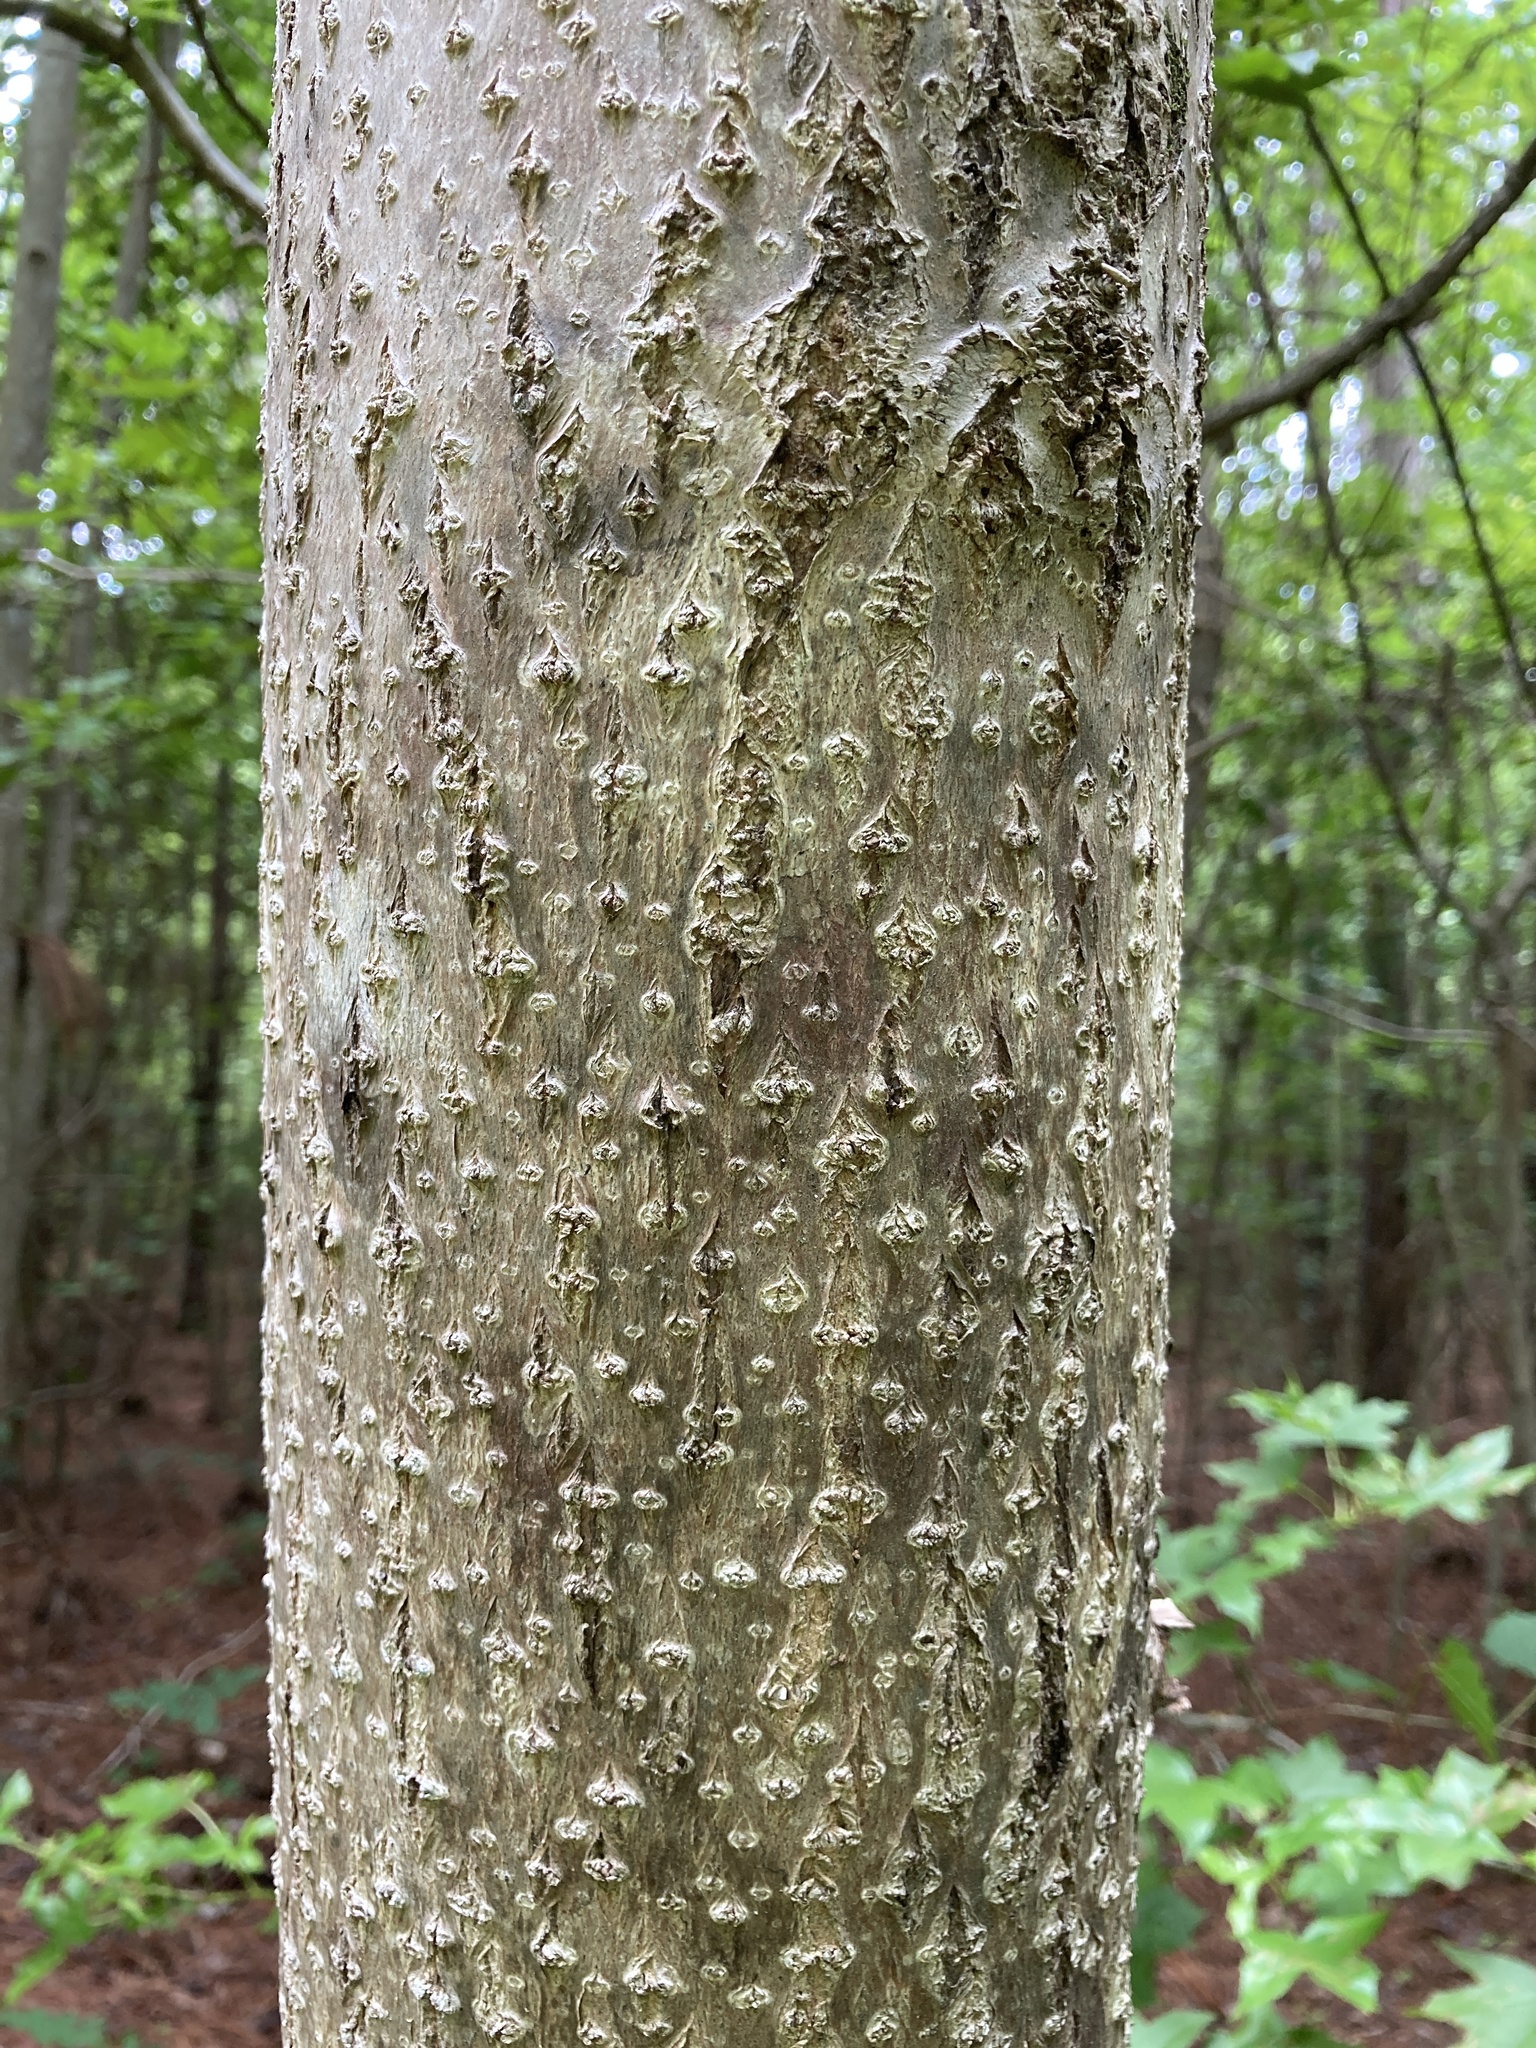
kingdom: Plantae
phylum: Tracheophyta
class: Magnoliopsida
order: Lamiales
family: Paulowniaceae
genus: Paulownia
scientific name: Paulownia tomentosa
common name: Foxglove-tree
